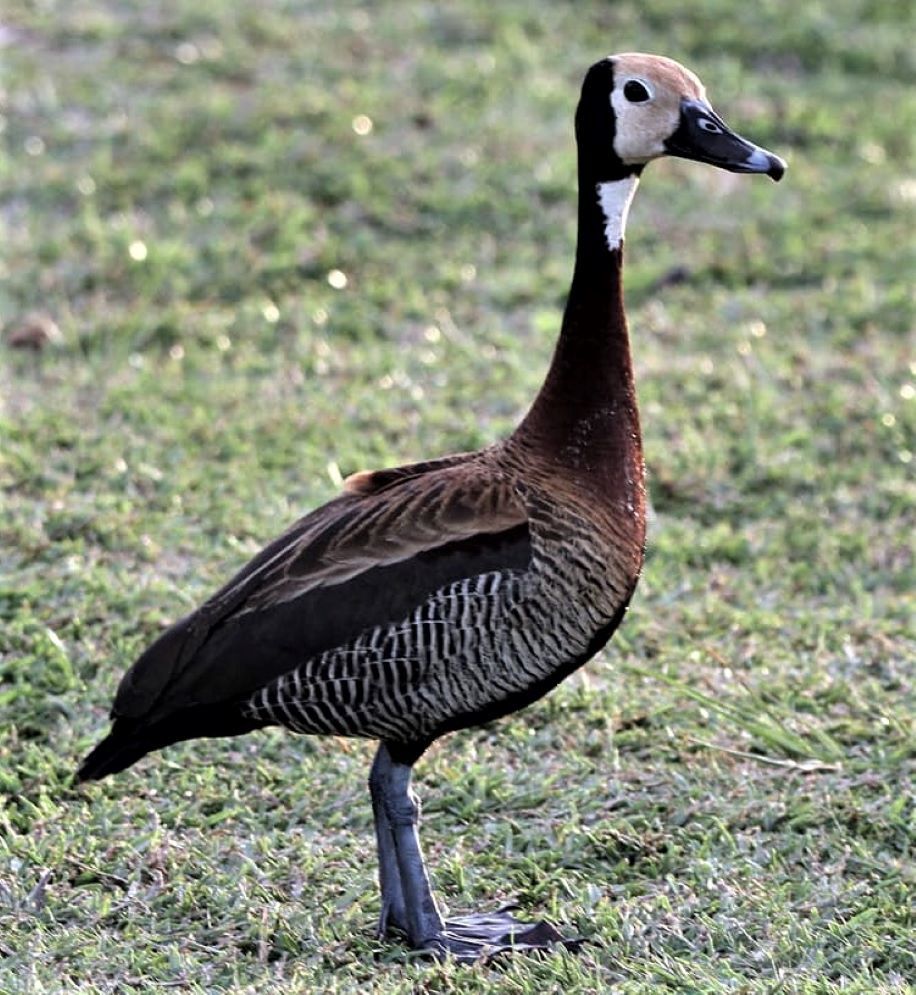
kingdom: Animalia
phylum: Chordata
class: Aves
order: Anseriformes
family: Anatidae
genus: Dendrocygna
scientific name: Dendrocygna viduata
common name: White-faced whistling duck
